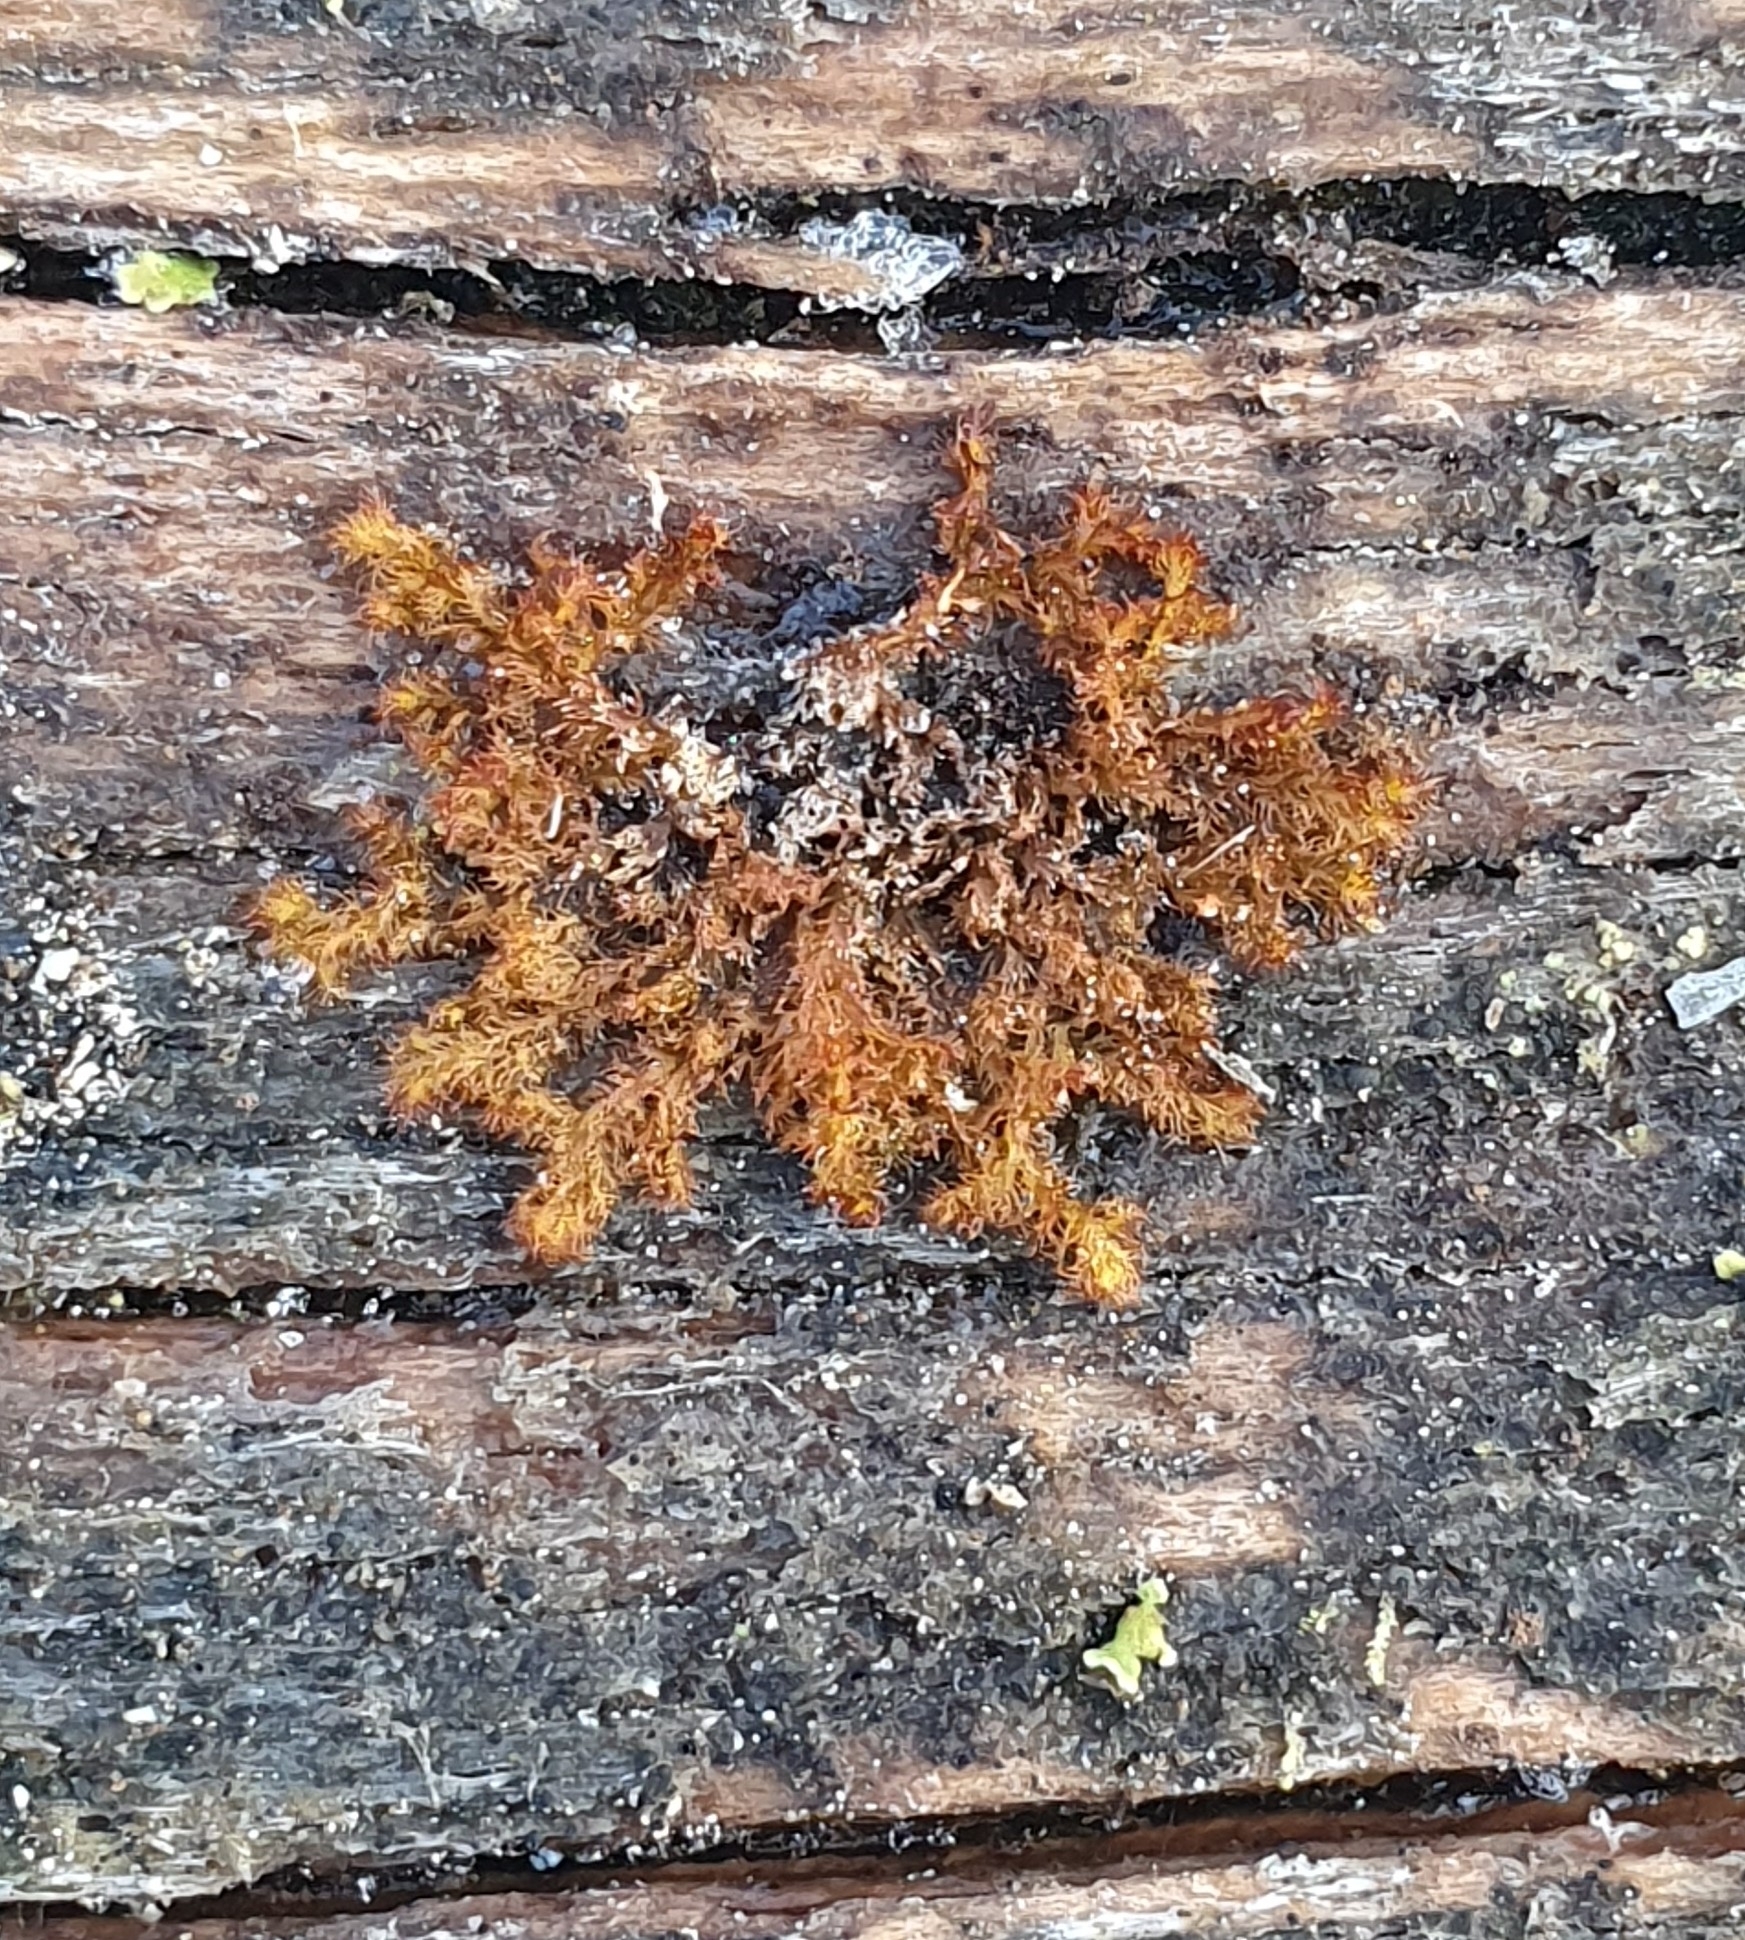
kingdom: Plantae
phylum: Marchantiophyta
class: Jungermanniopsida
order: Ptilidiales
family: Ptilidiaceae
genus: Ptilidium
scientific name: Ptilidium pulcherrimum
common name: Tree fringewort
